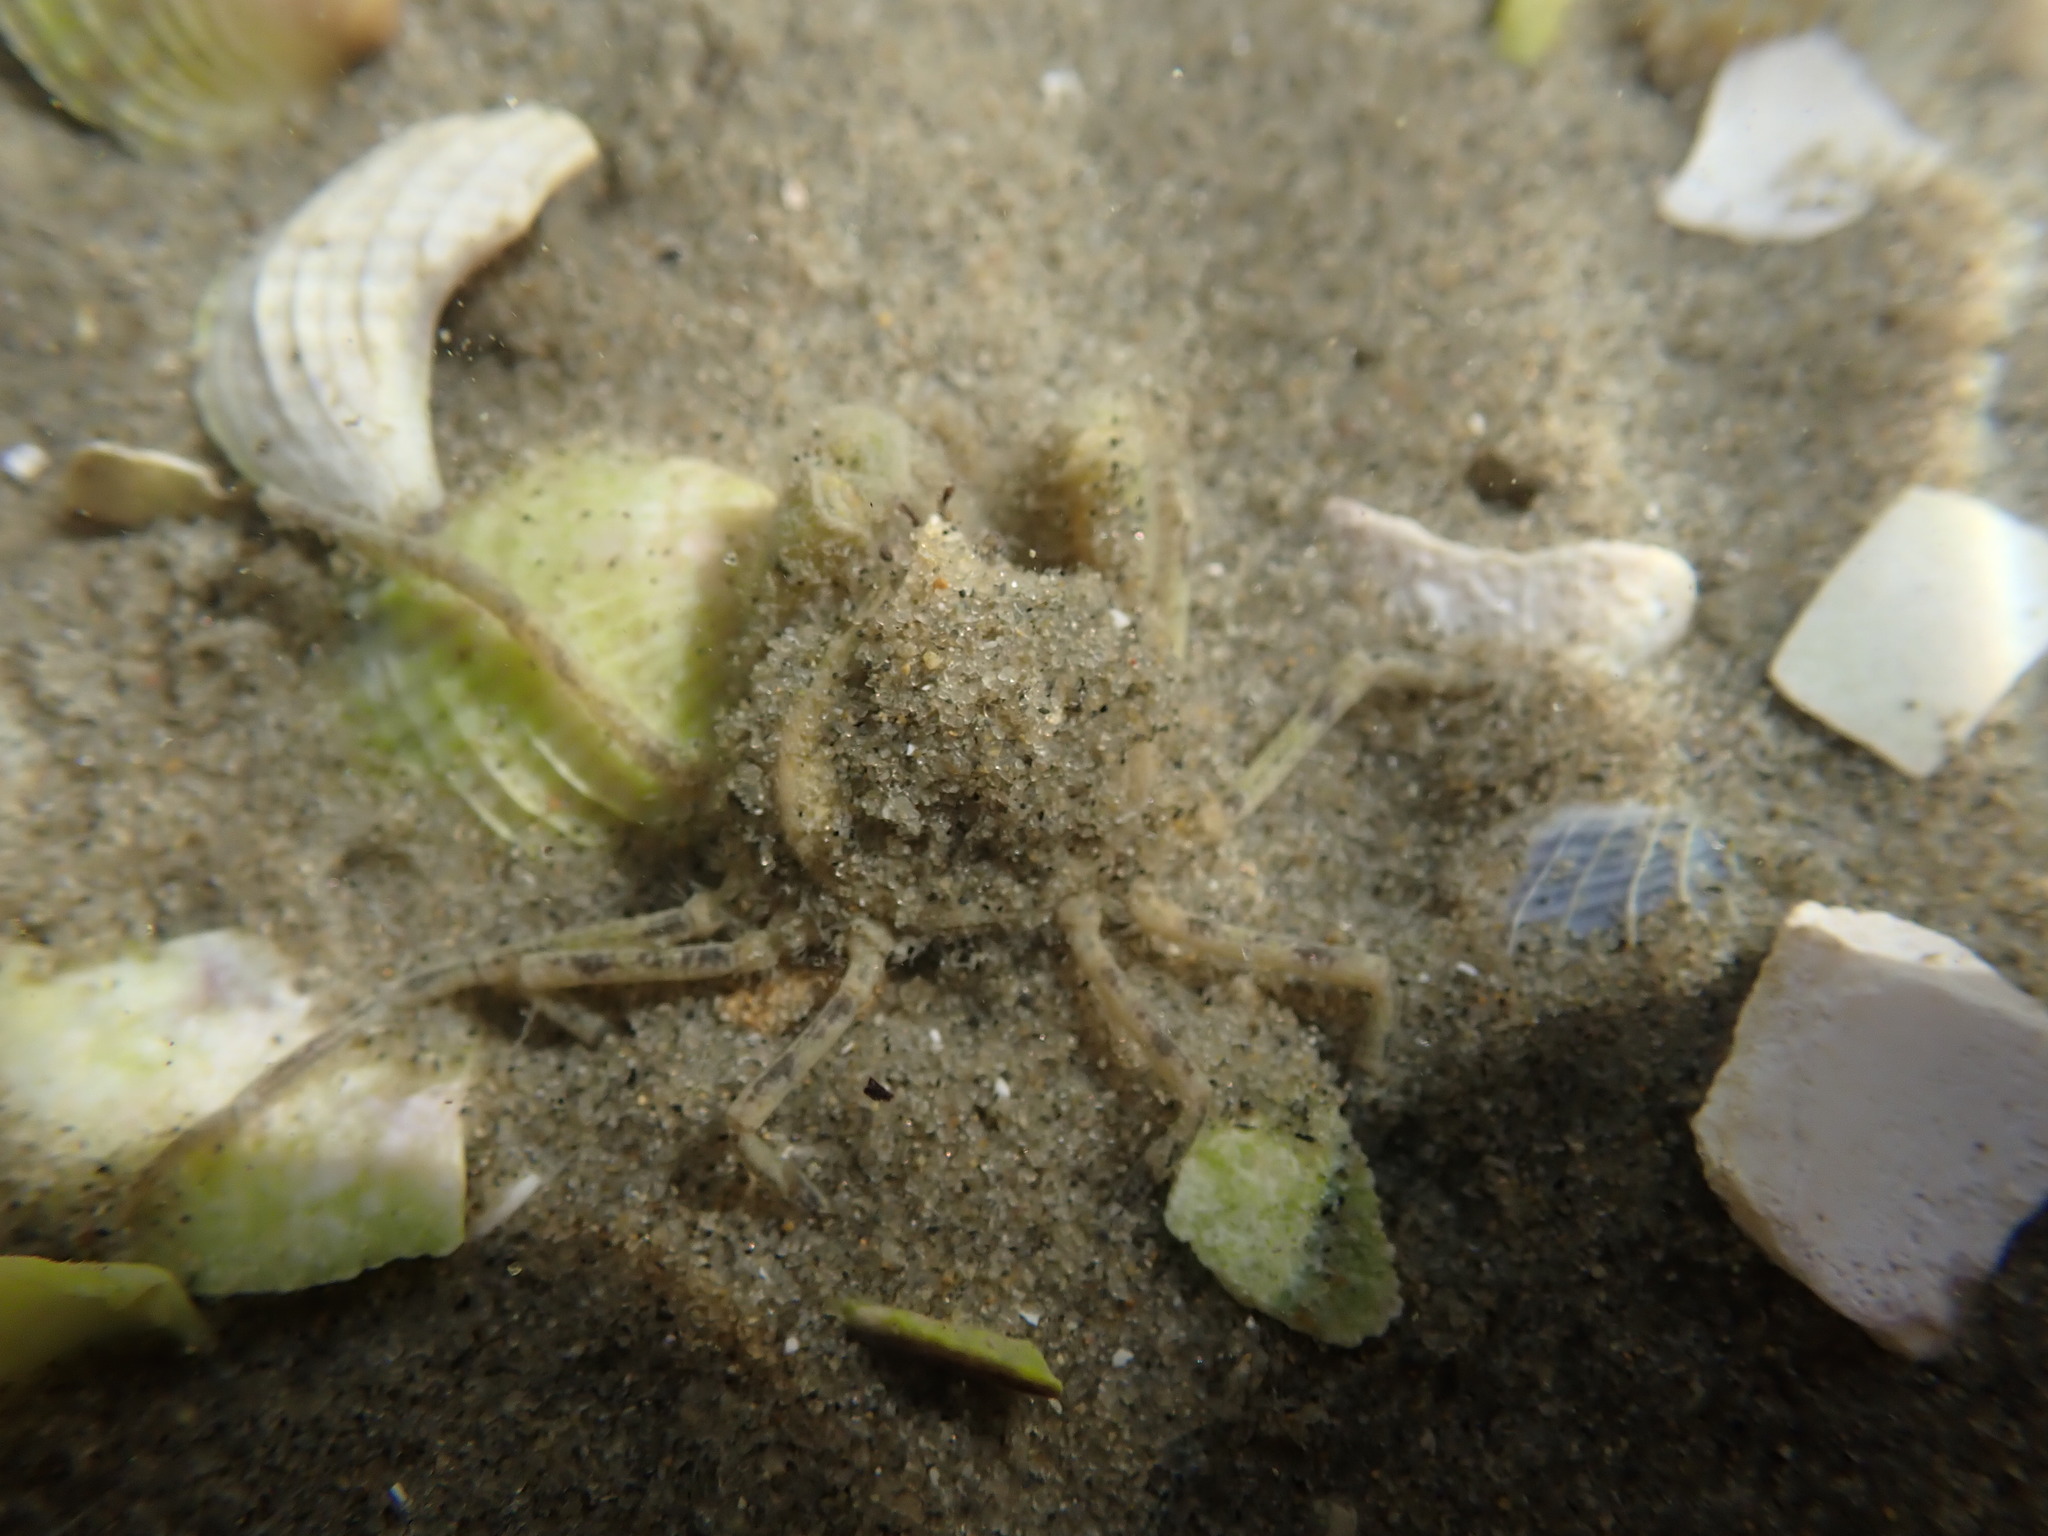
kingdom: Animalia
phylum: Arthropoda
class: Malacostraca
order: Decapoda
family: Hymenosomatidae
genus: Halicarcinus
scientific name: Halicarcinus whitei
